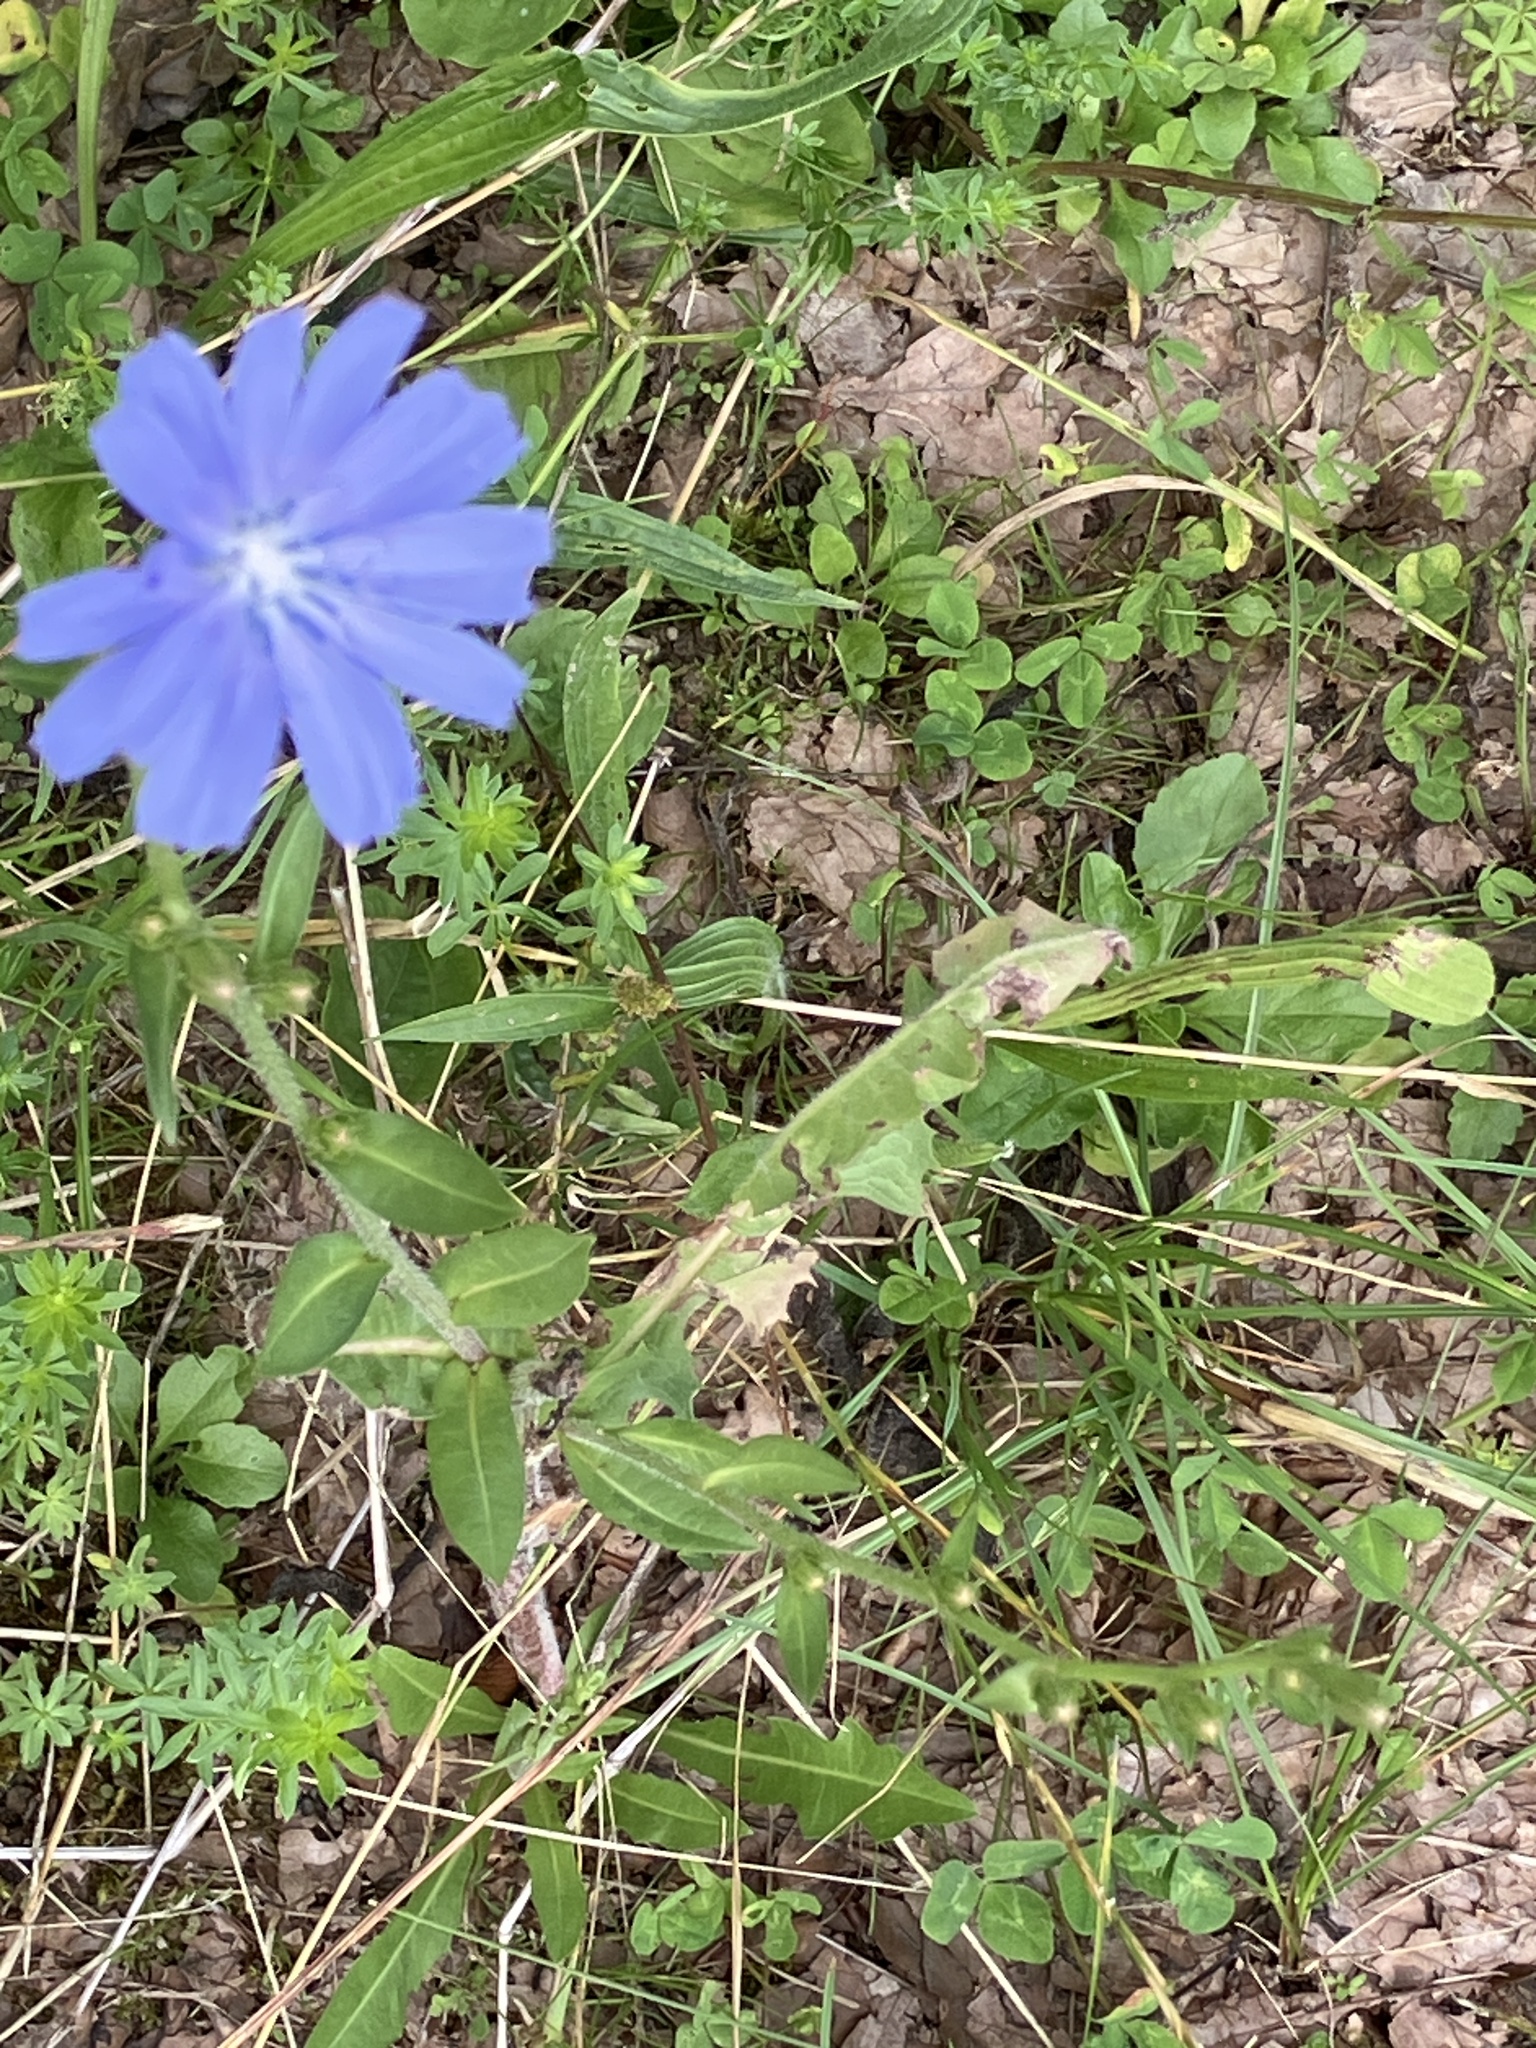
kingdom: Plantae
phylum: Tracheophyta
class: Magnoliopsida
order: Asterales
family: Asteraceae
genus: Cichorium
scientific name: Cichorium intybus
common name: Chicory
